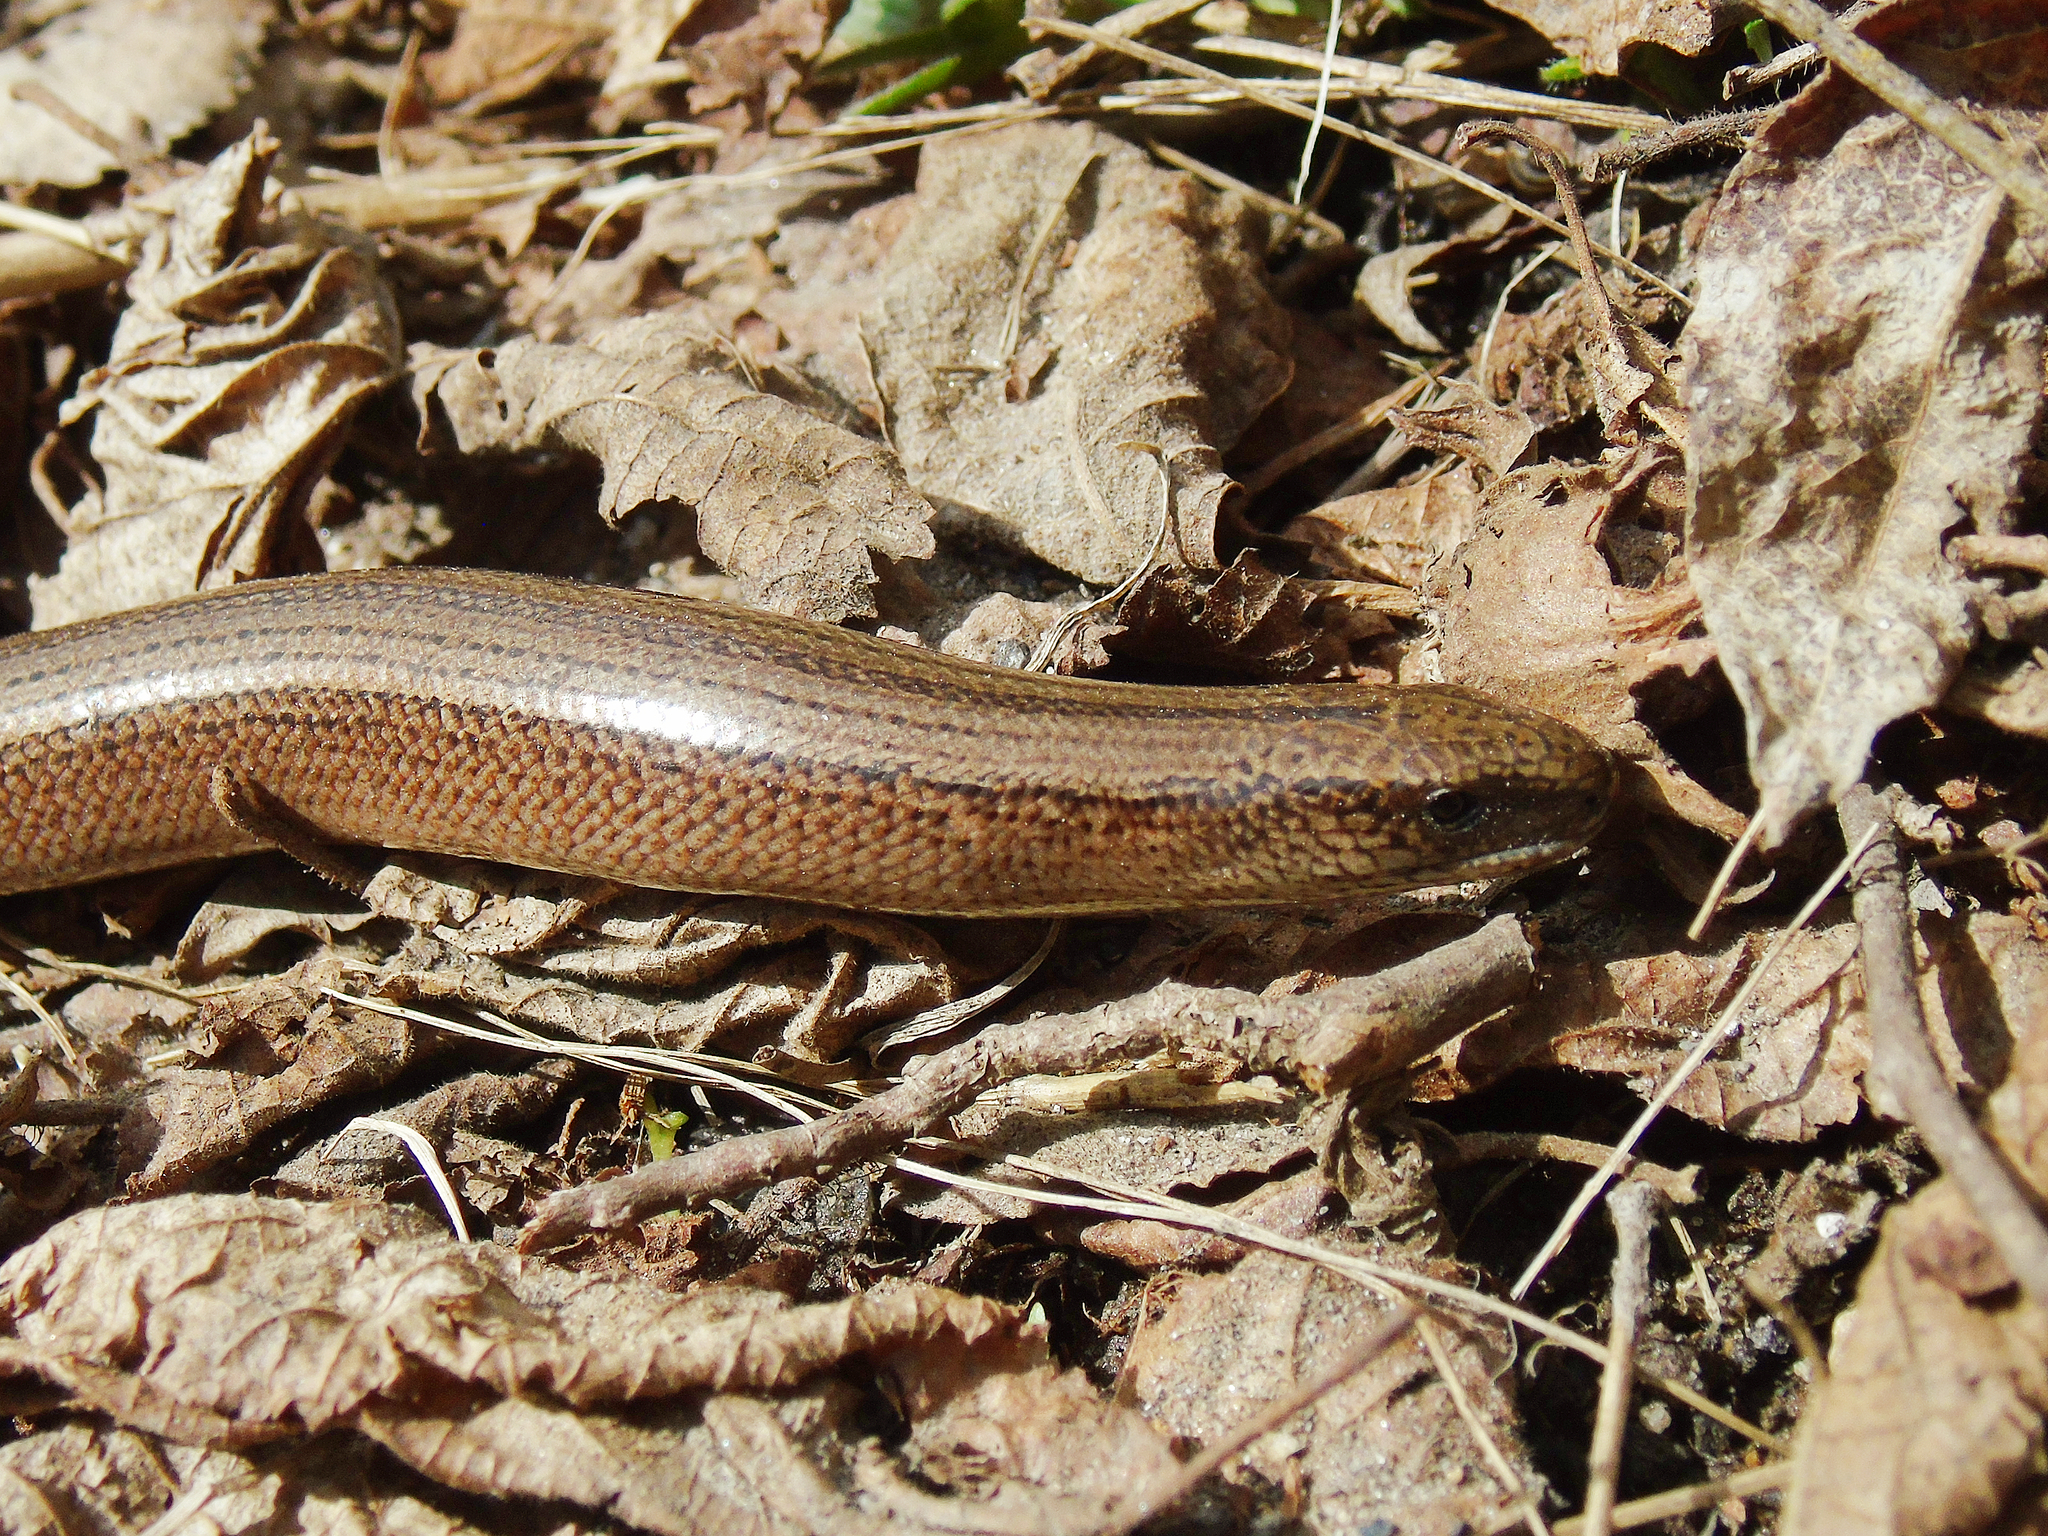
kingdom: Animalia
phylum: Chordata
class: Squamata
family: Anguidae
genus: Anguis
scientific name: Anguis fragilis
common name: Slow worm
